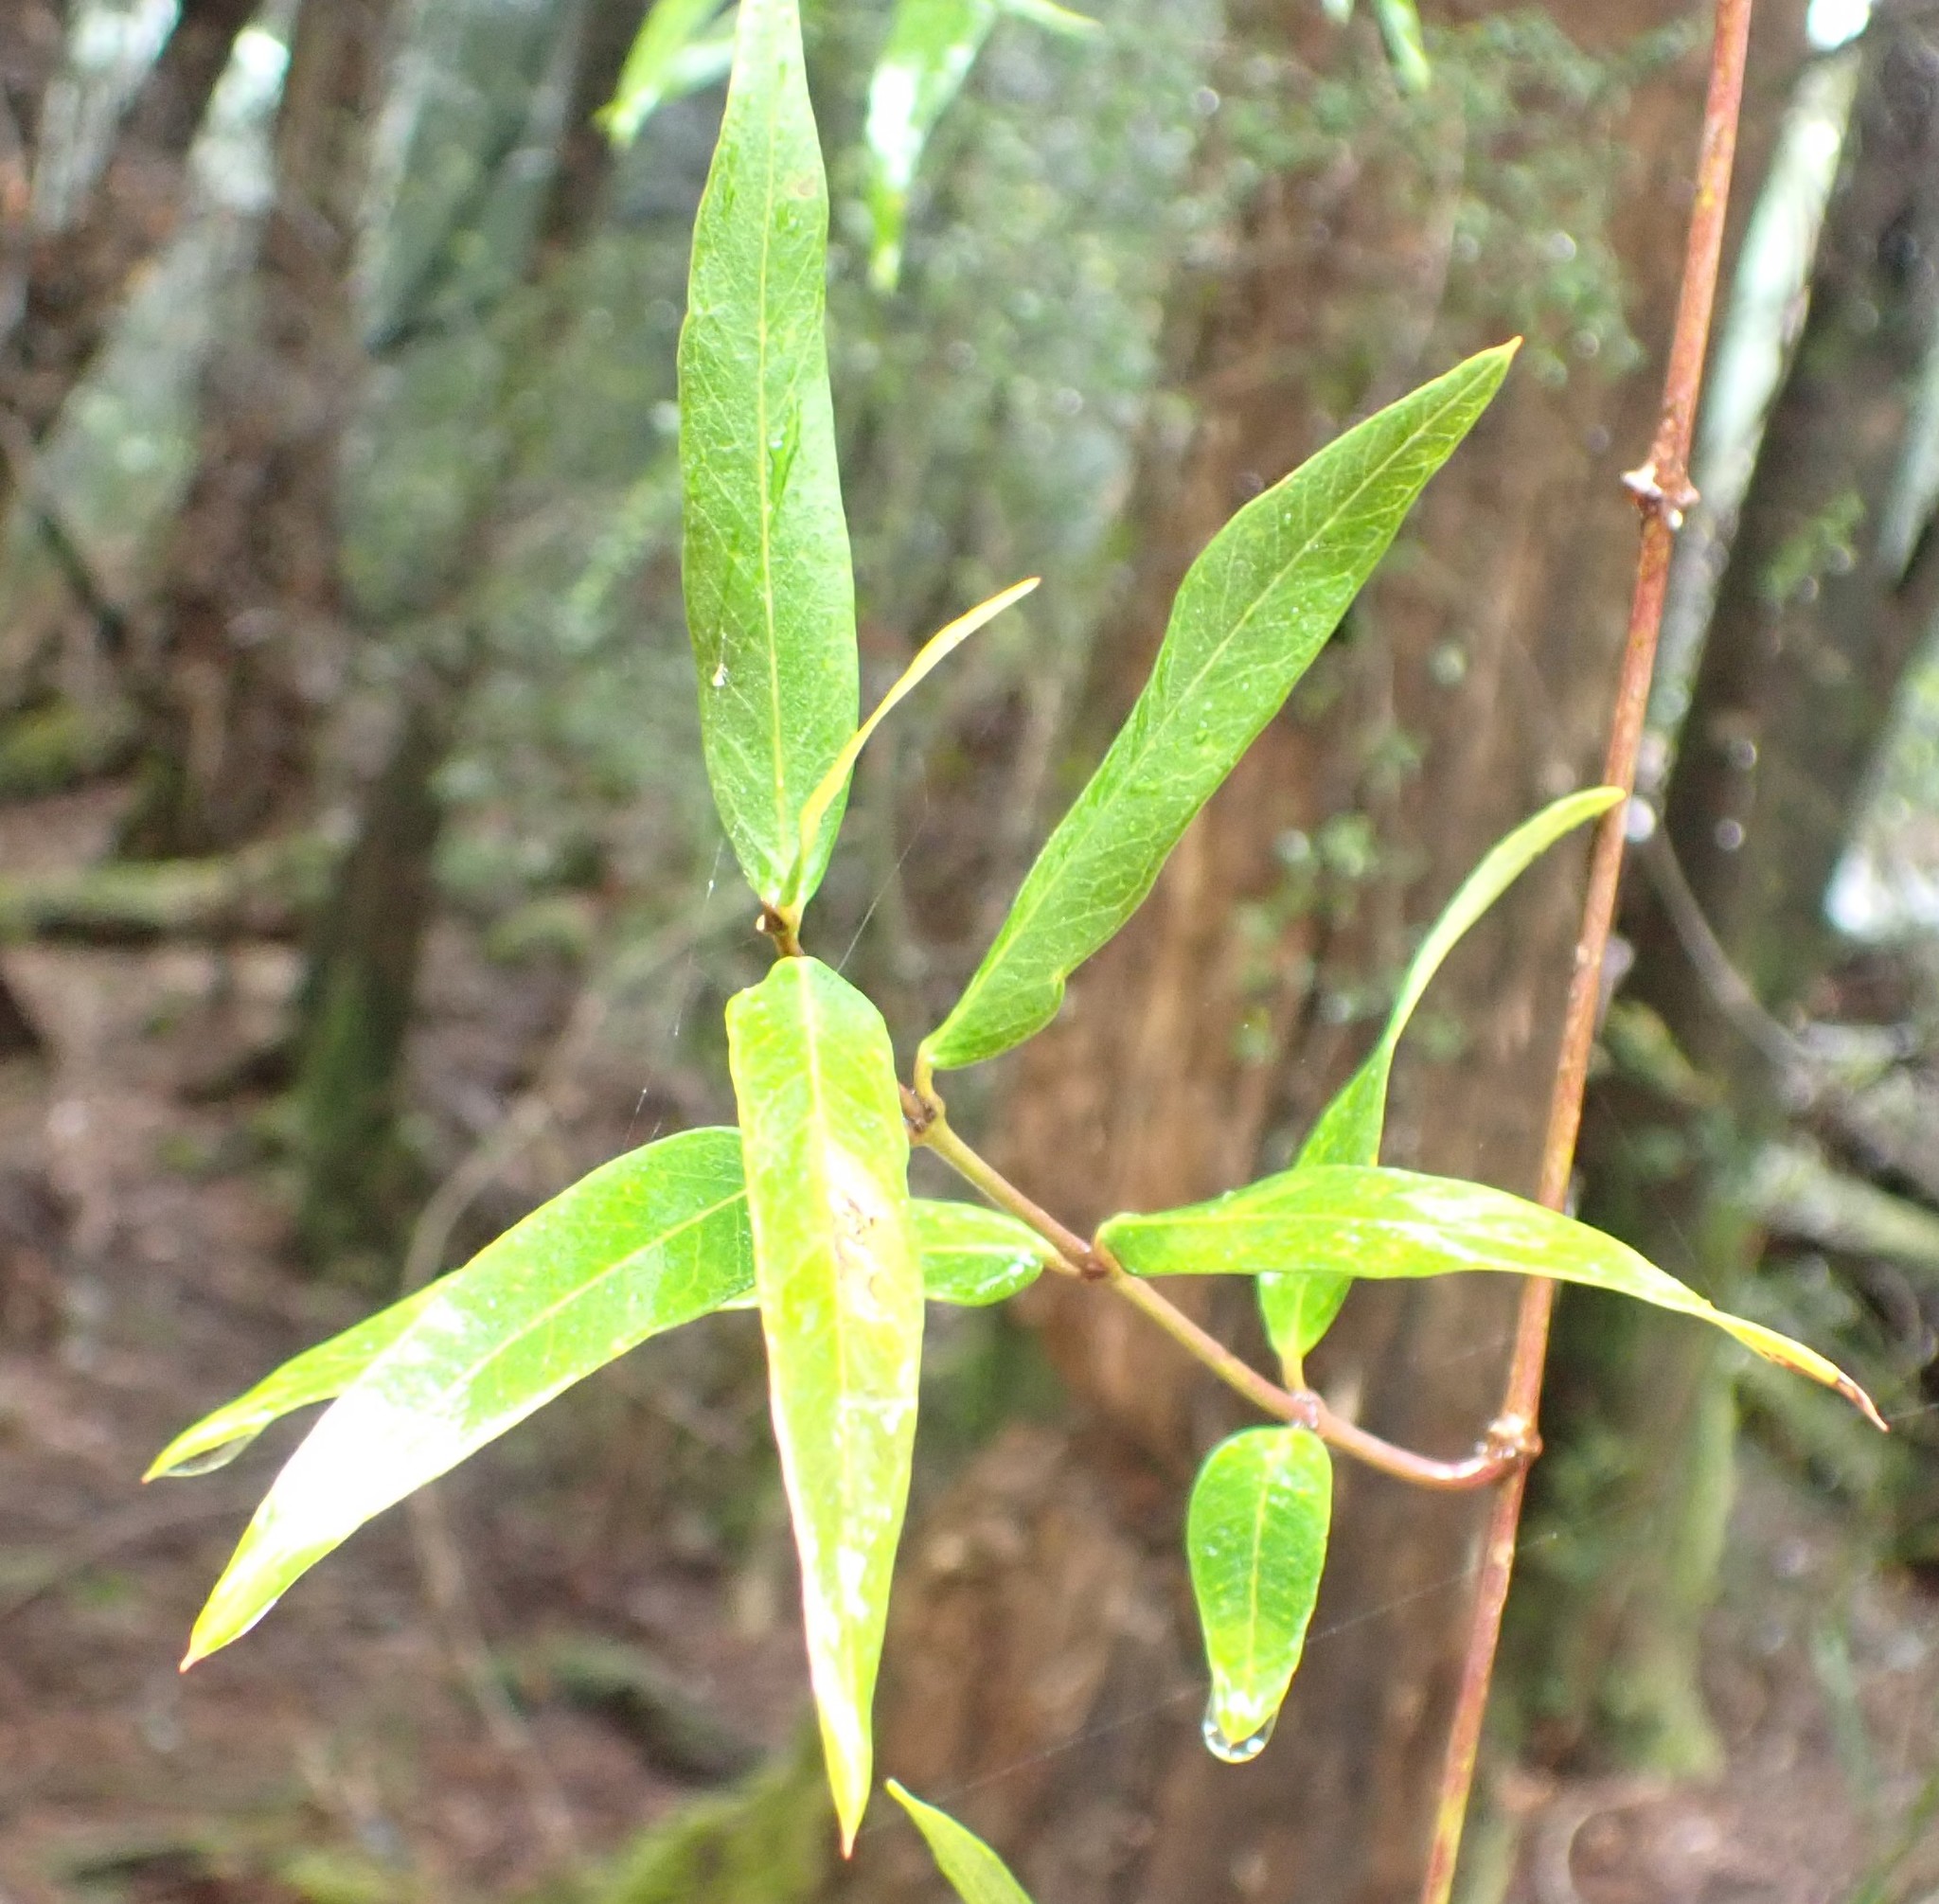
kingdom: Plantae
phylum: Tracheophyta
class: Magnoliopsida
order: Gentianales
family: Apocynaceae
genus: Parsonsia
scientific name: Parsonsia brownii
